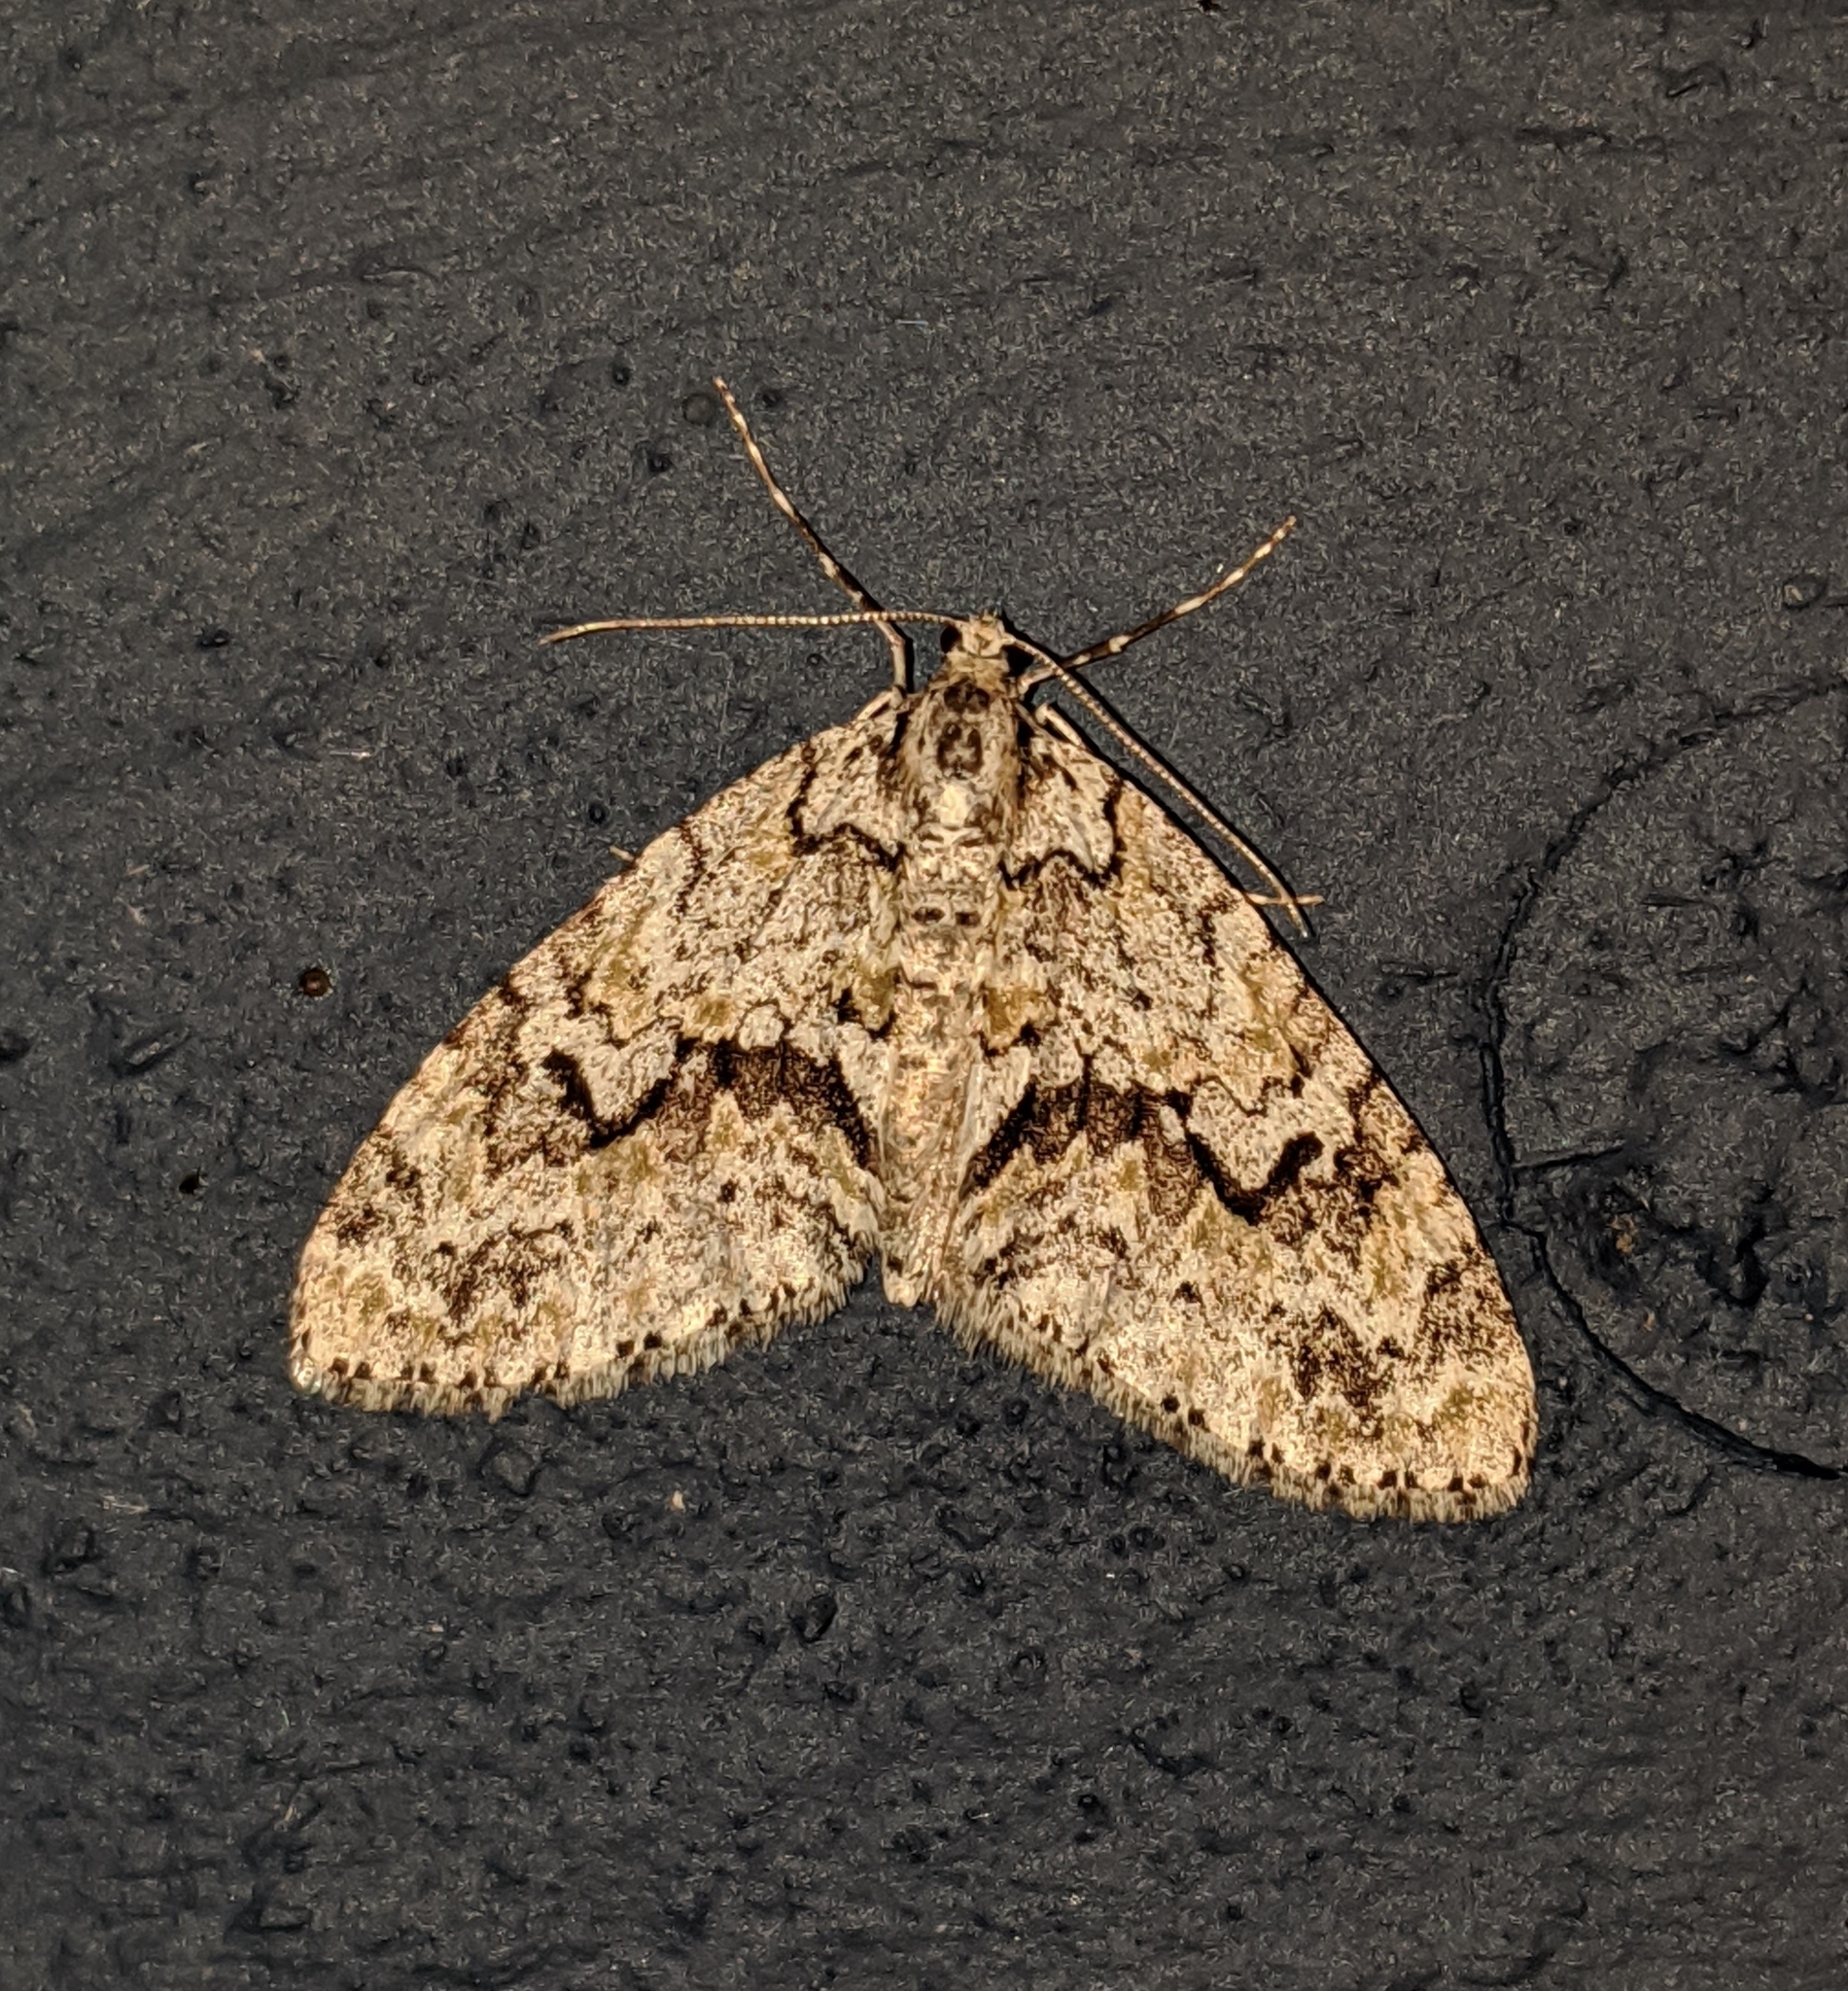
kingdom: Animalia
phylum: Arthropoda
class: Insecta
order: Lepidoptera
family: Geometridae
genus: Cladara
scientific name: Cladara limitaria
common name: Mottled gray carpet
